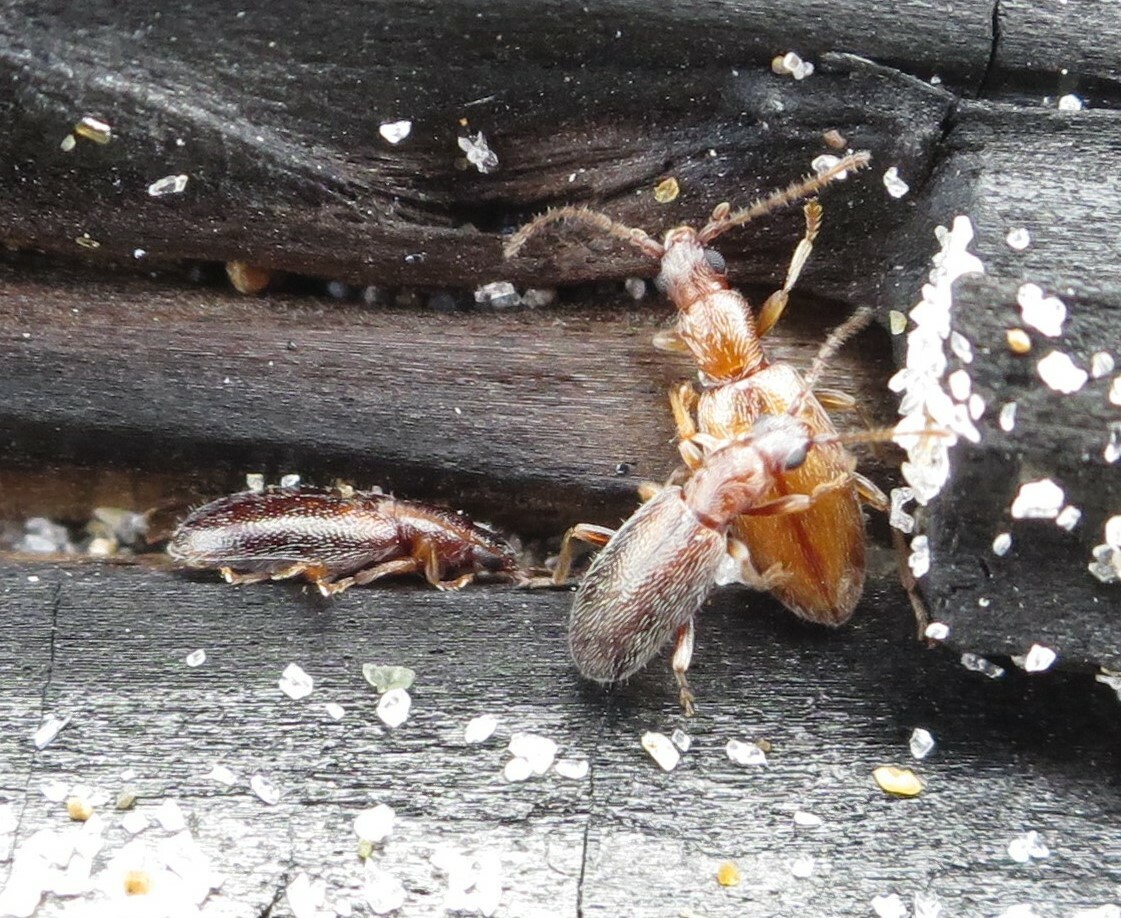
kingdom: Animalia
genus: Lagrioda
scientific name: Lagrioda brounii
